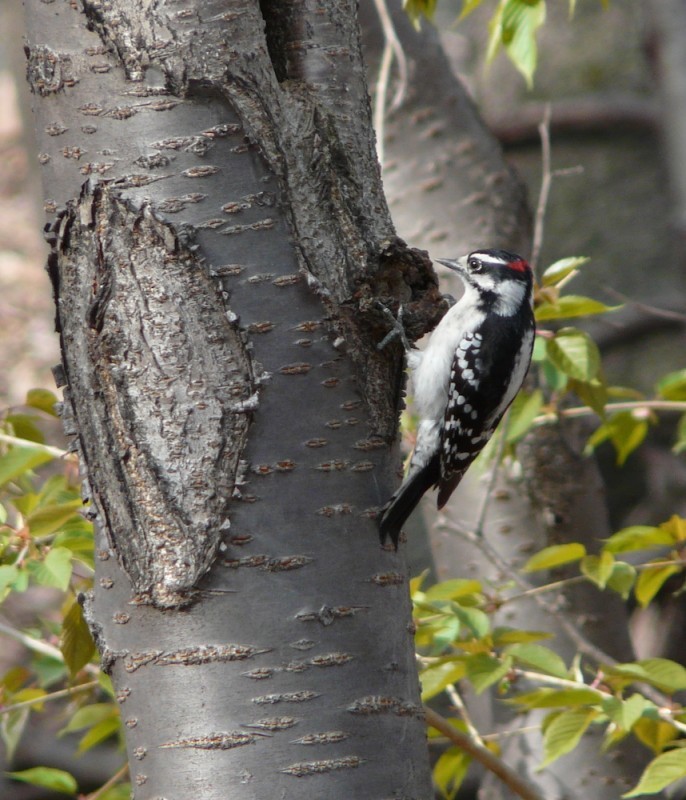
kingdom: Animalia
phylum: Chordata
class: Aves
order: Piciformes
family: Picidae
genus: Dryobates
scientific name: Dryobates pubescens
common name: Downy woodpecker
